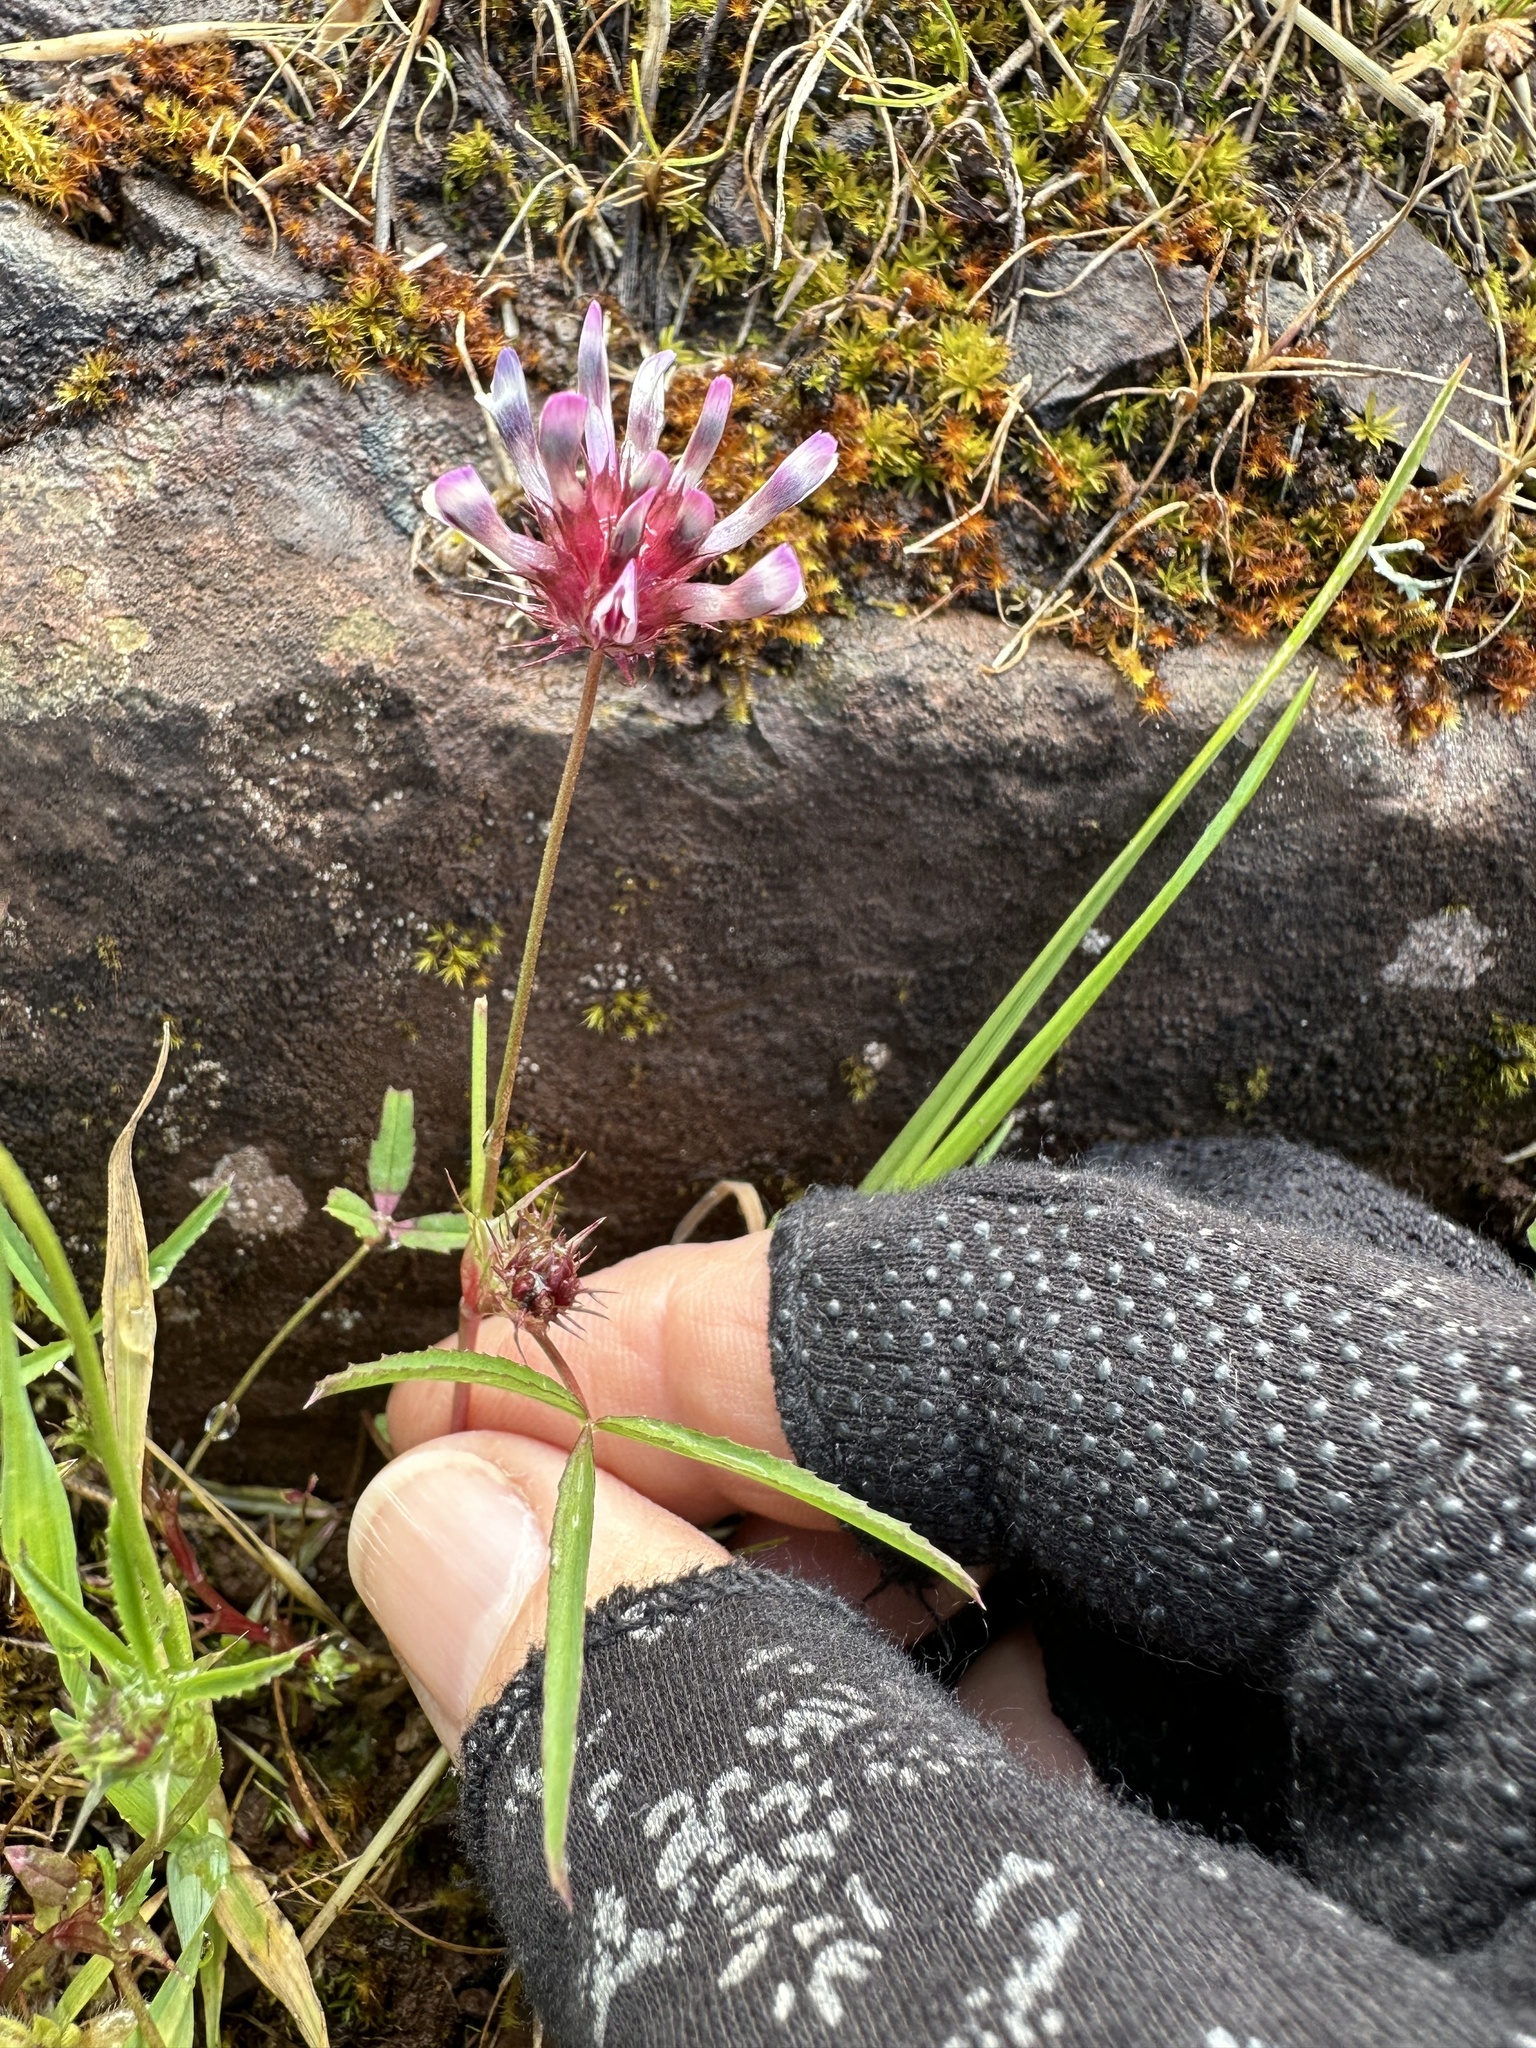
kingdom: Plantae
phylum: Tracheophyta
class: Magnoliopsida
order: Fabales
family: Fabaceae
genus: Trifolium
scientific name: Trifolium willdenovii
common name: Tomcat clover
